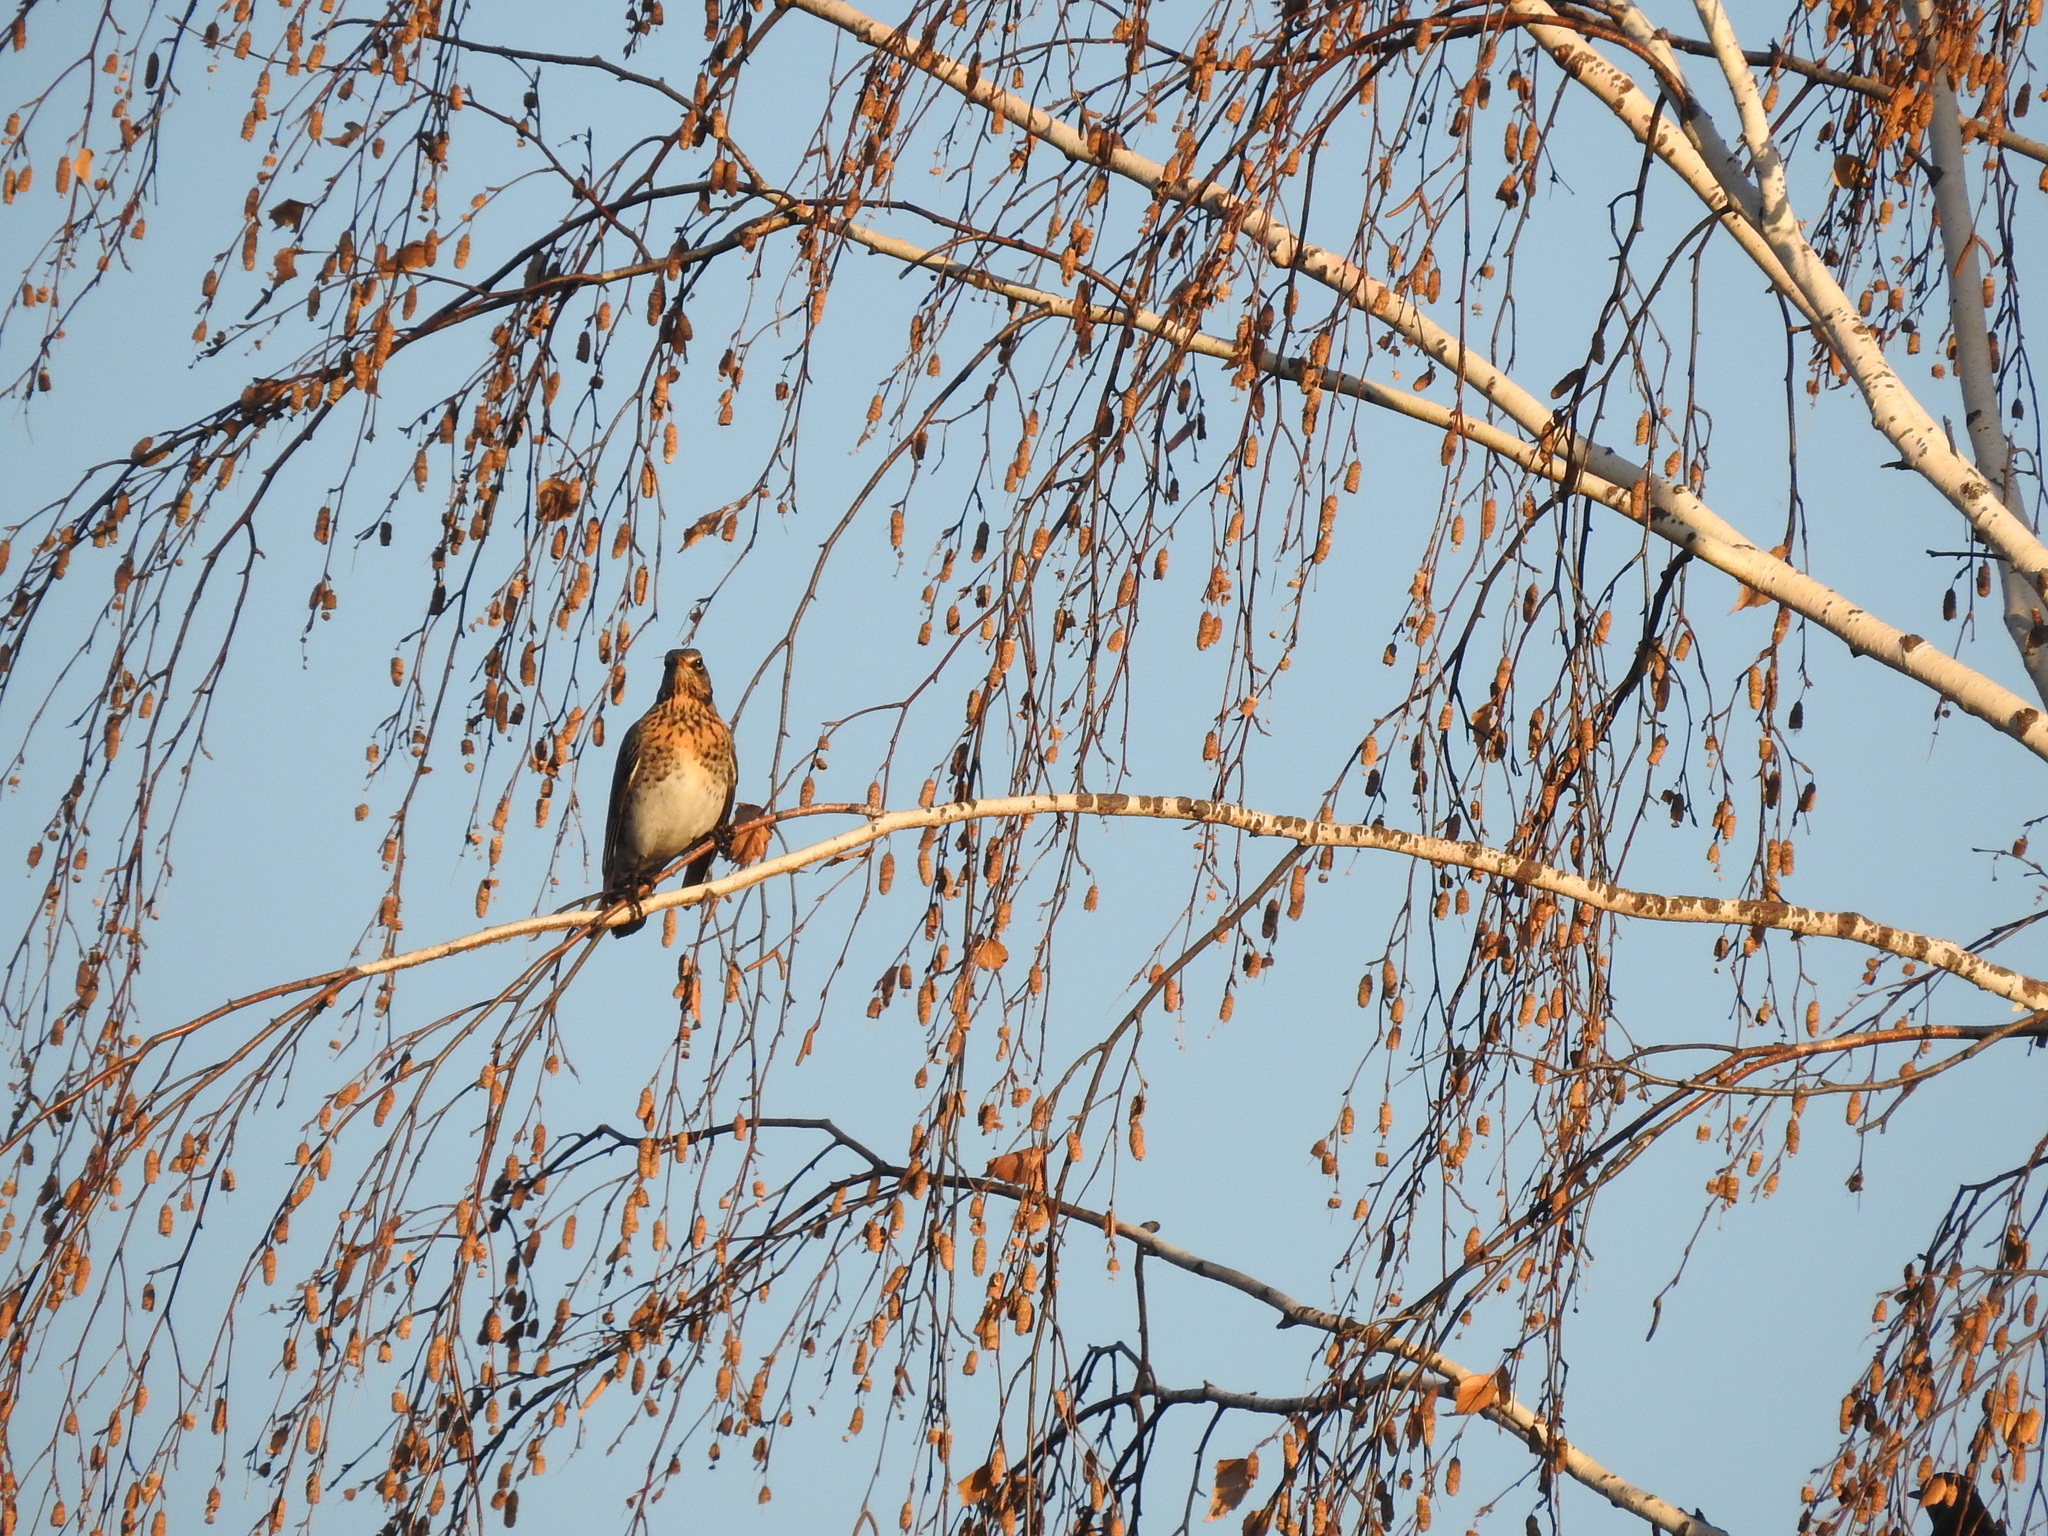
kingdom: Animalia
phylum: Chordata
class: Aves
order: Passeriformes
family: Turdidae
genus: Turdus
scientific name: Turdus pilaris
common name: Fieldfare
